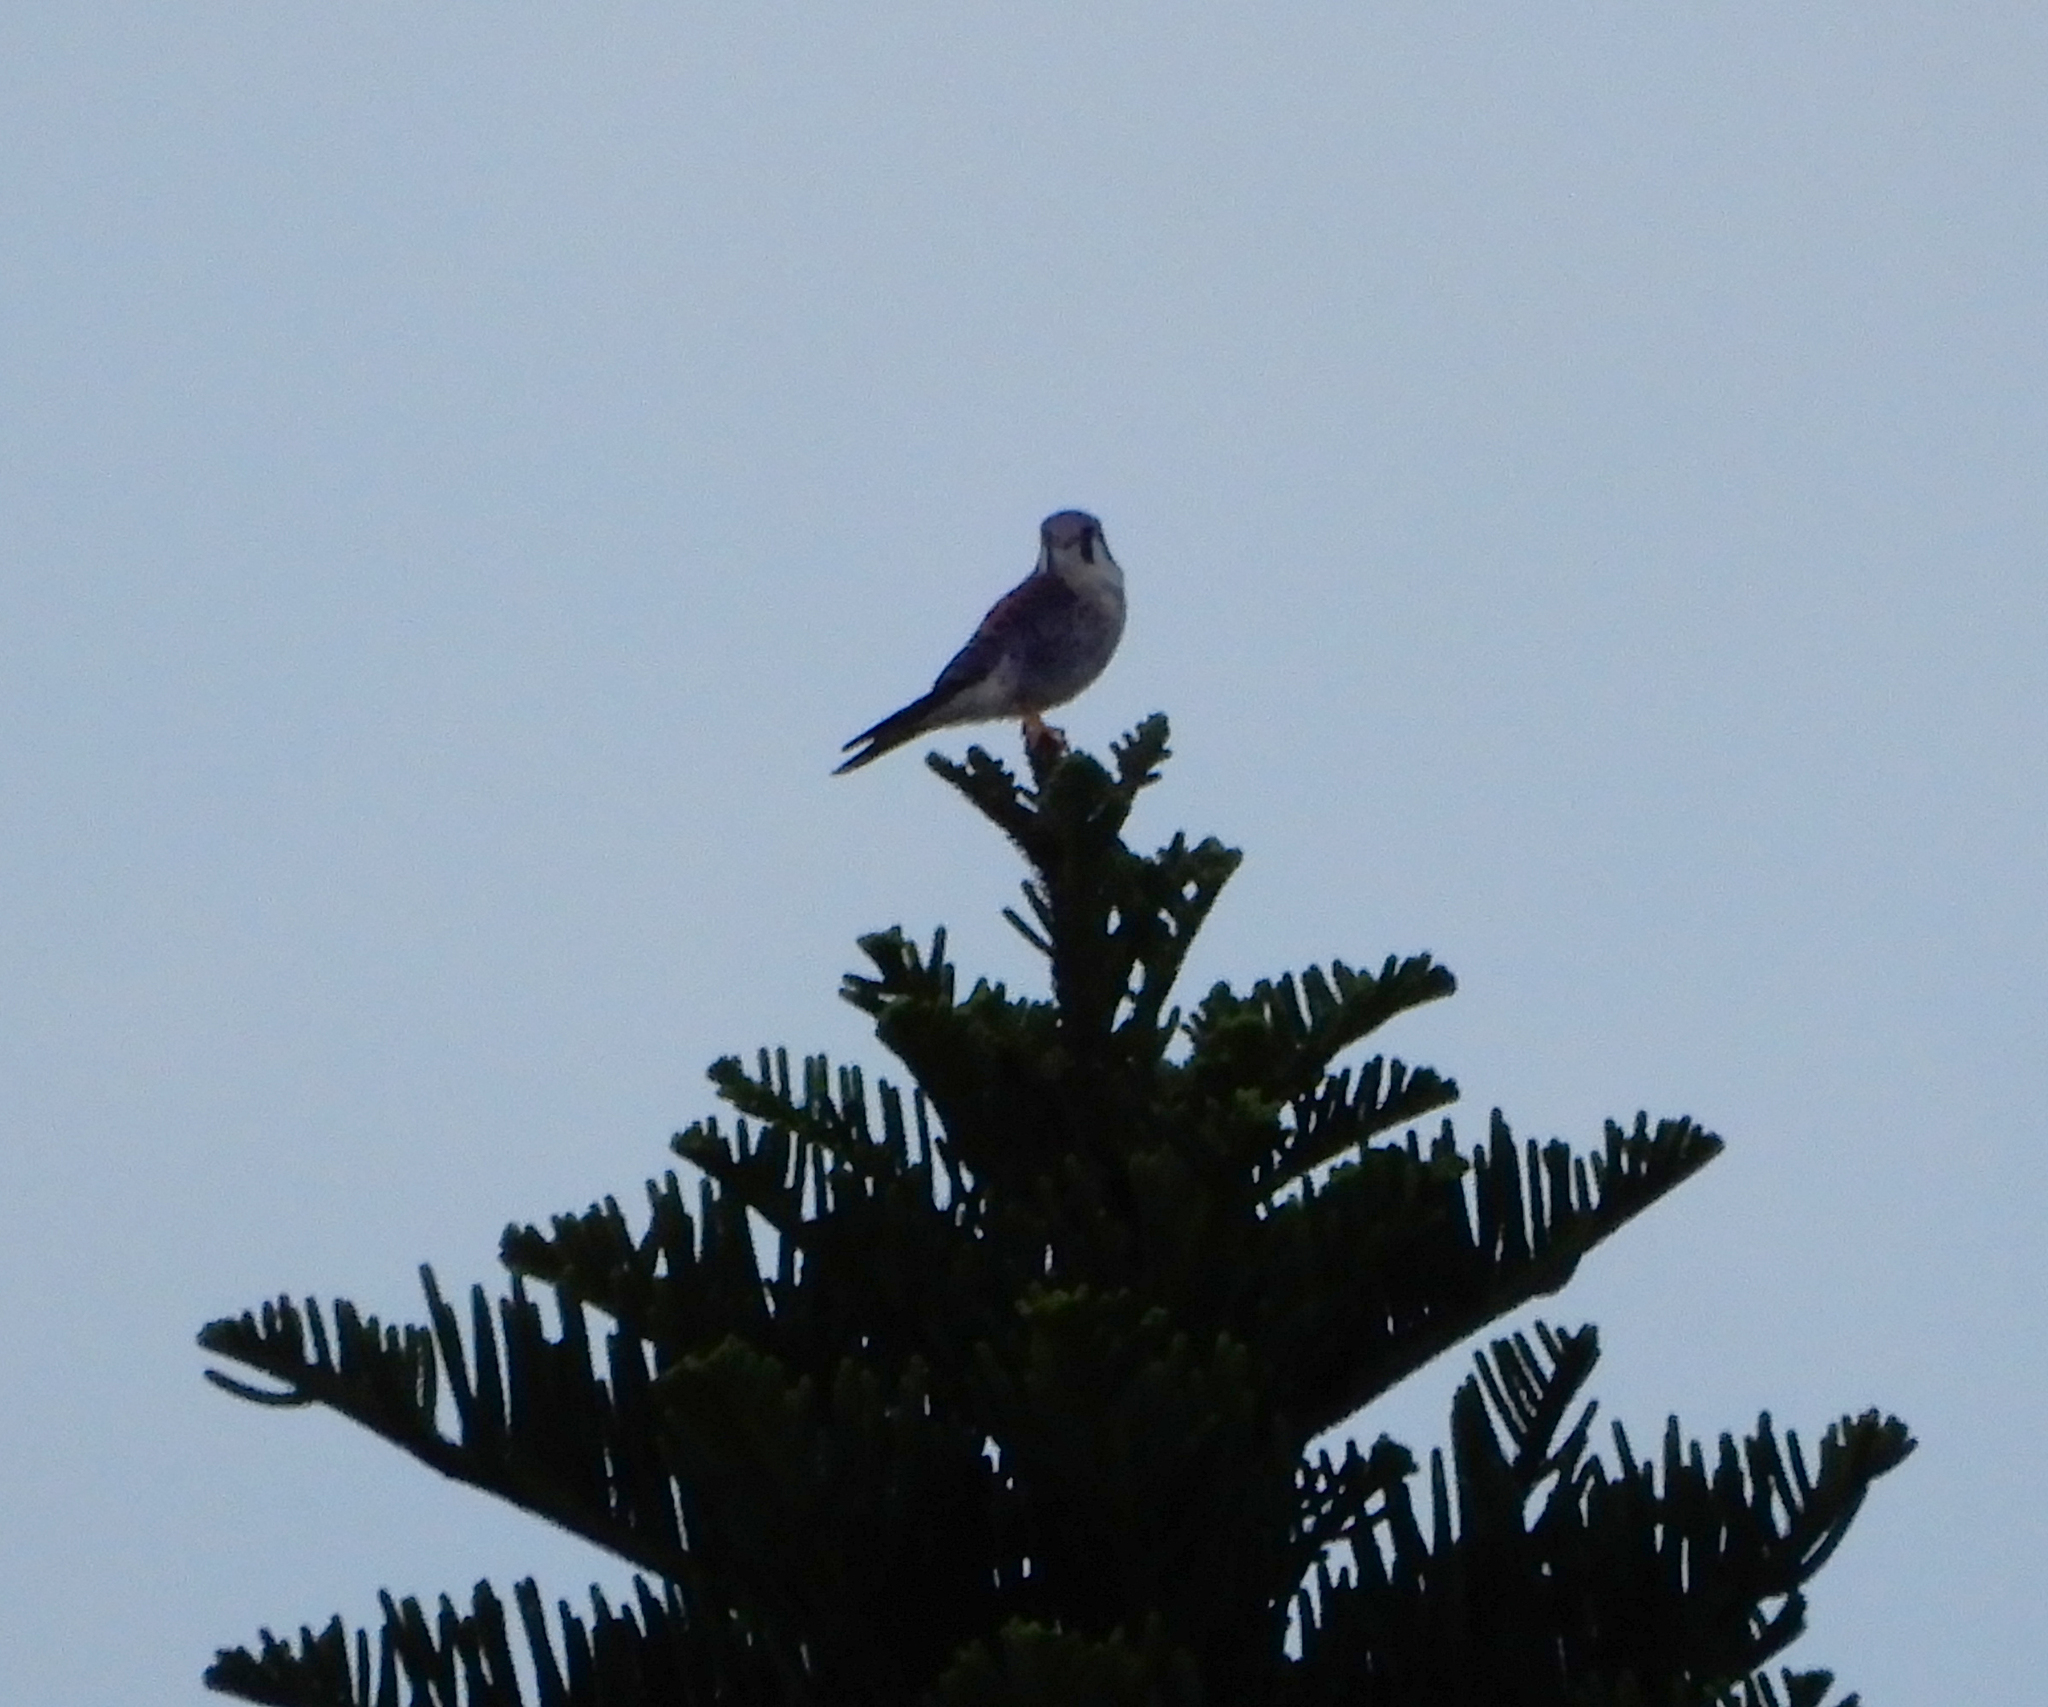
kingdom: Animalia
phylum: Chordata
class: Aves
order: Falconiformes
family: Falconidae
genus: Falco
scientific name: Falco sparverius
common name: American kestrel
